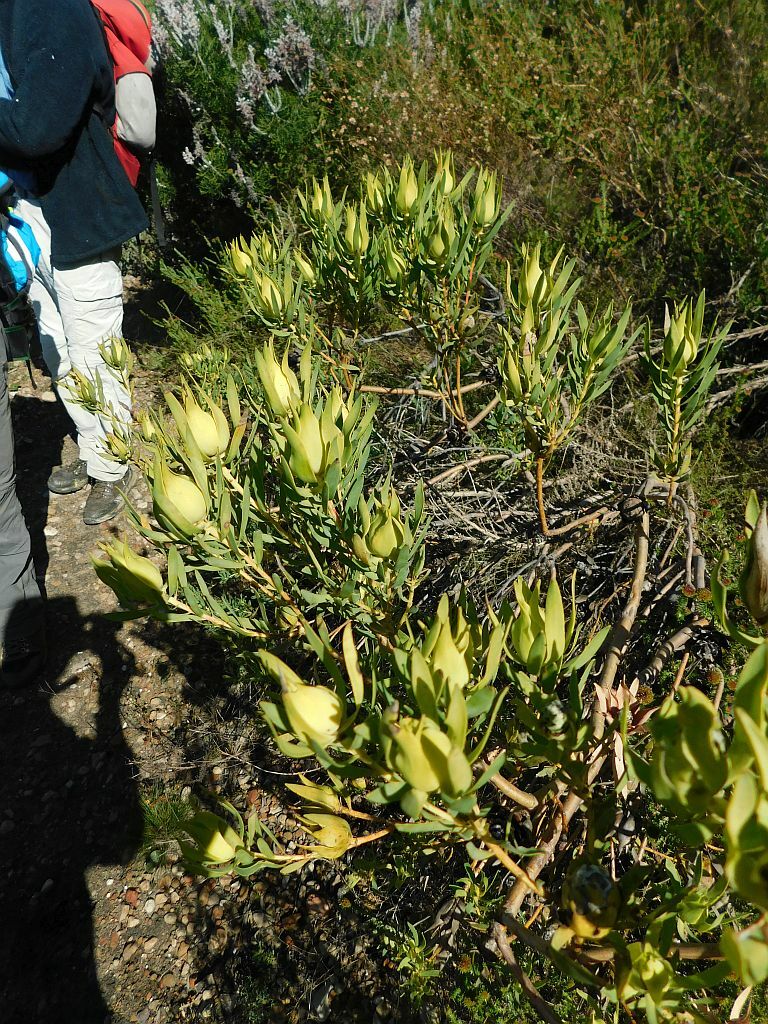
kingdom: Plantae
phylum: Tracheophyta
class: Magnoliopsida
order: Proteales
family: Proteaceae
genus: Leucadendron
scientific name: Leucadendron salignum
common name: Common sunshine conebush
